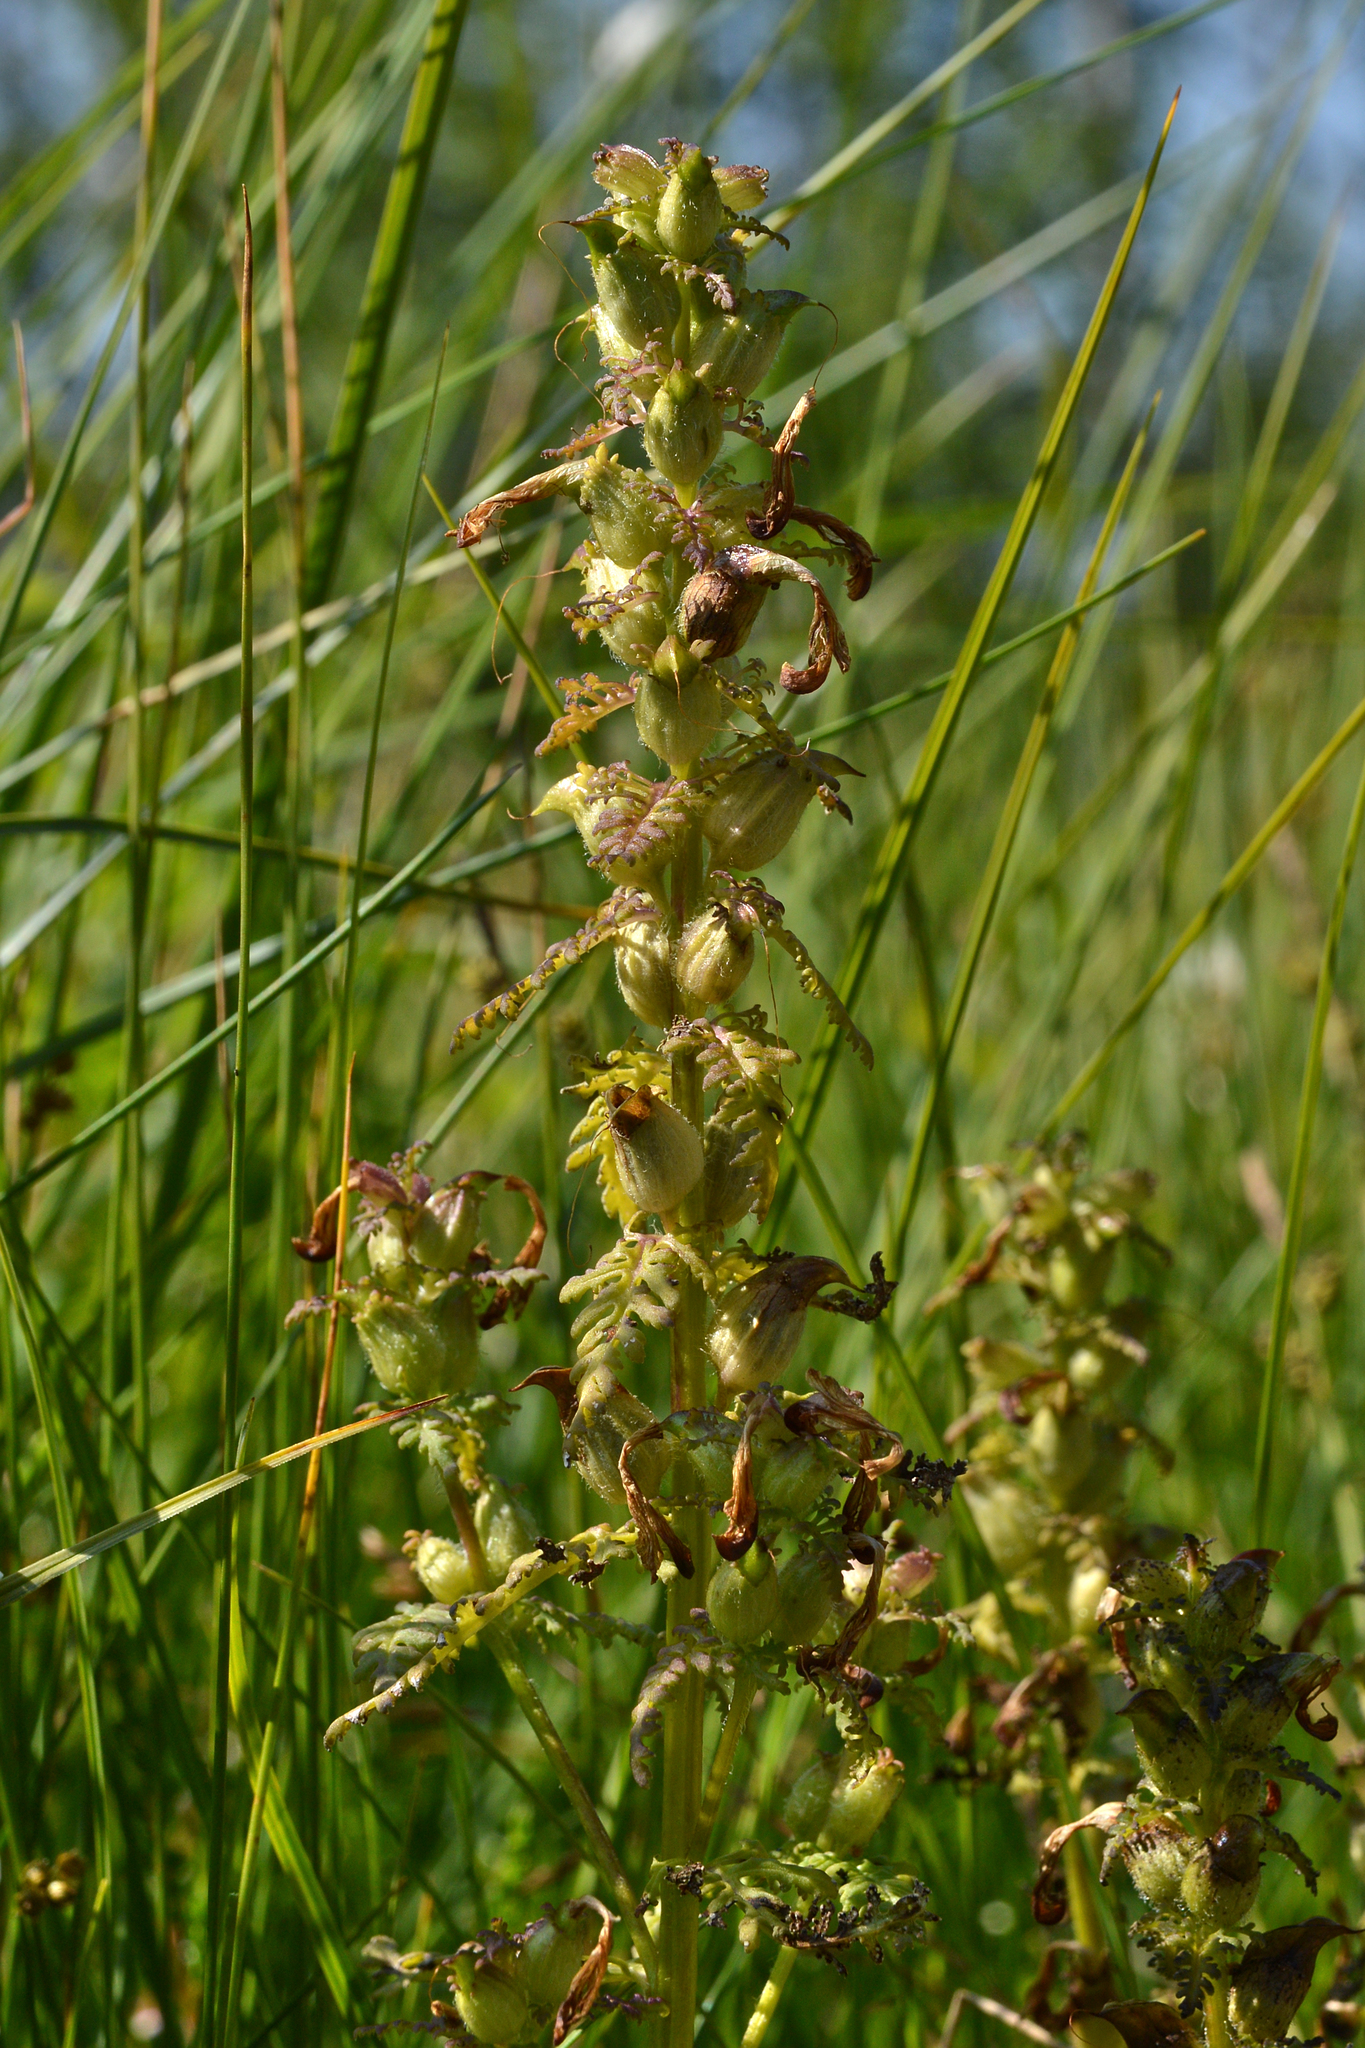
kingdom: Plantae
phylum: Tracheophyta
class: Magnoliopsida
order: Lamiales
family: Orobanchaceae
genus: Pedicularis
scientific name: Pedicularis palustris
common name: Marsh lousewort
